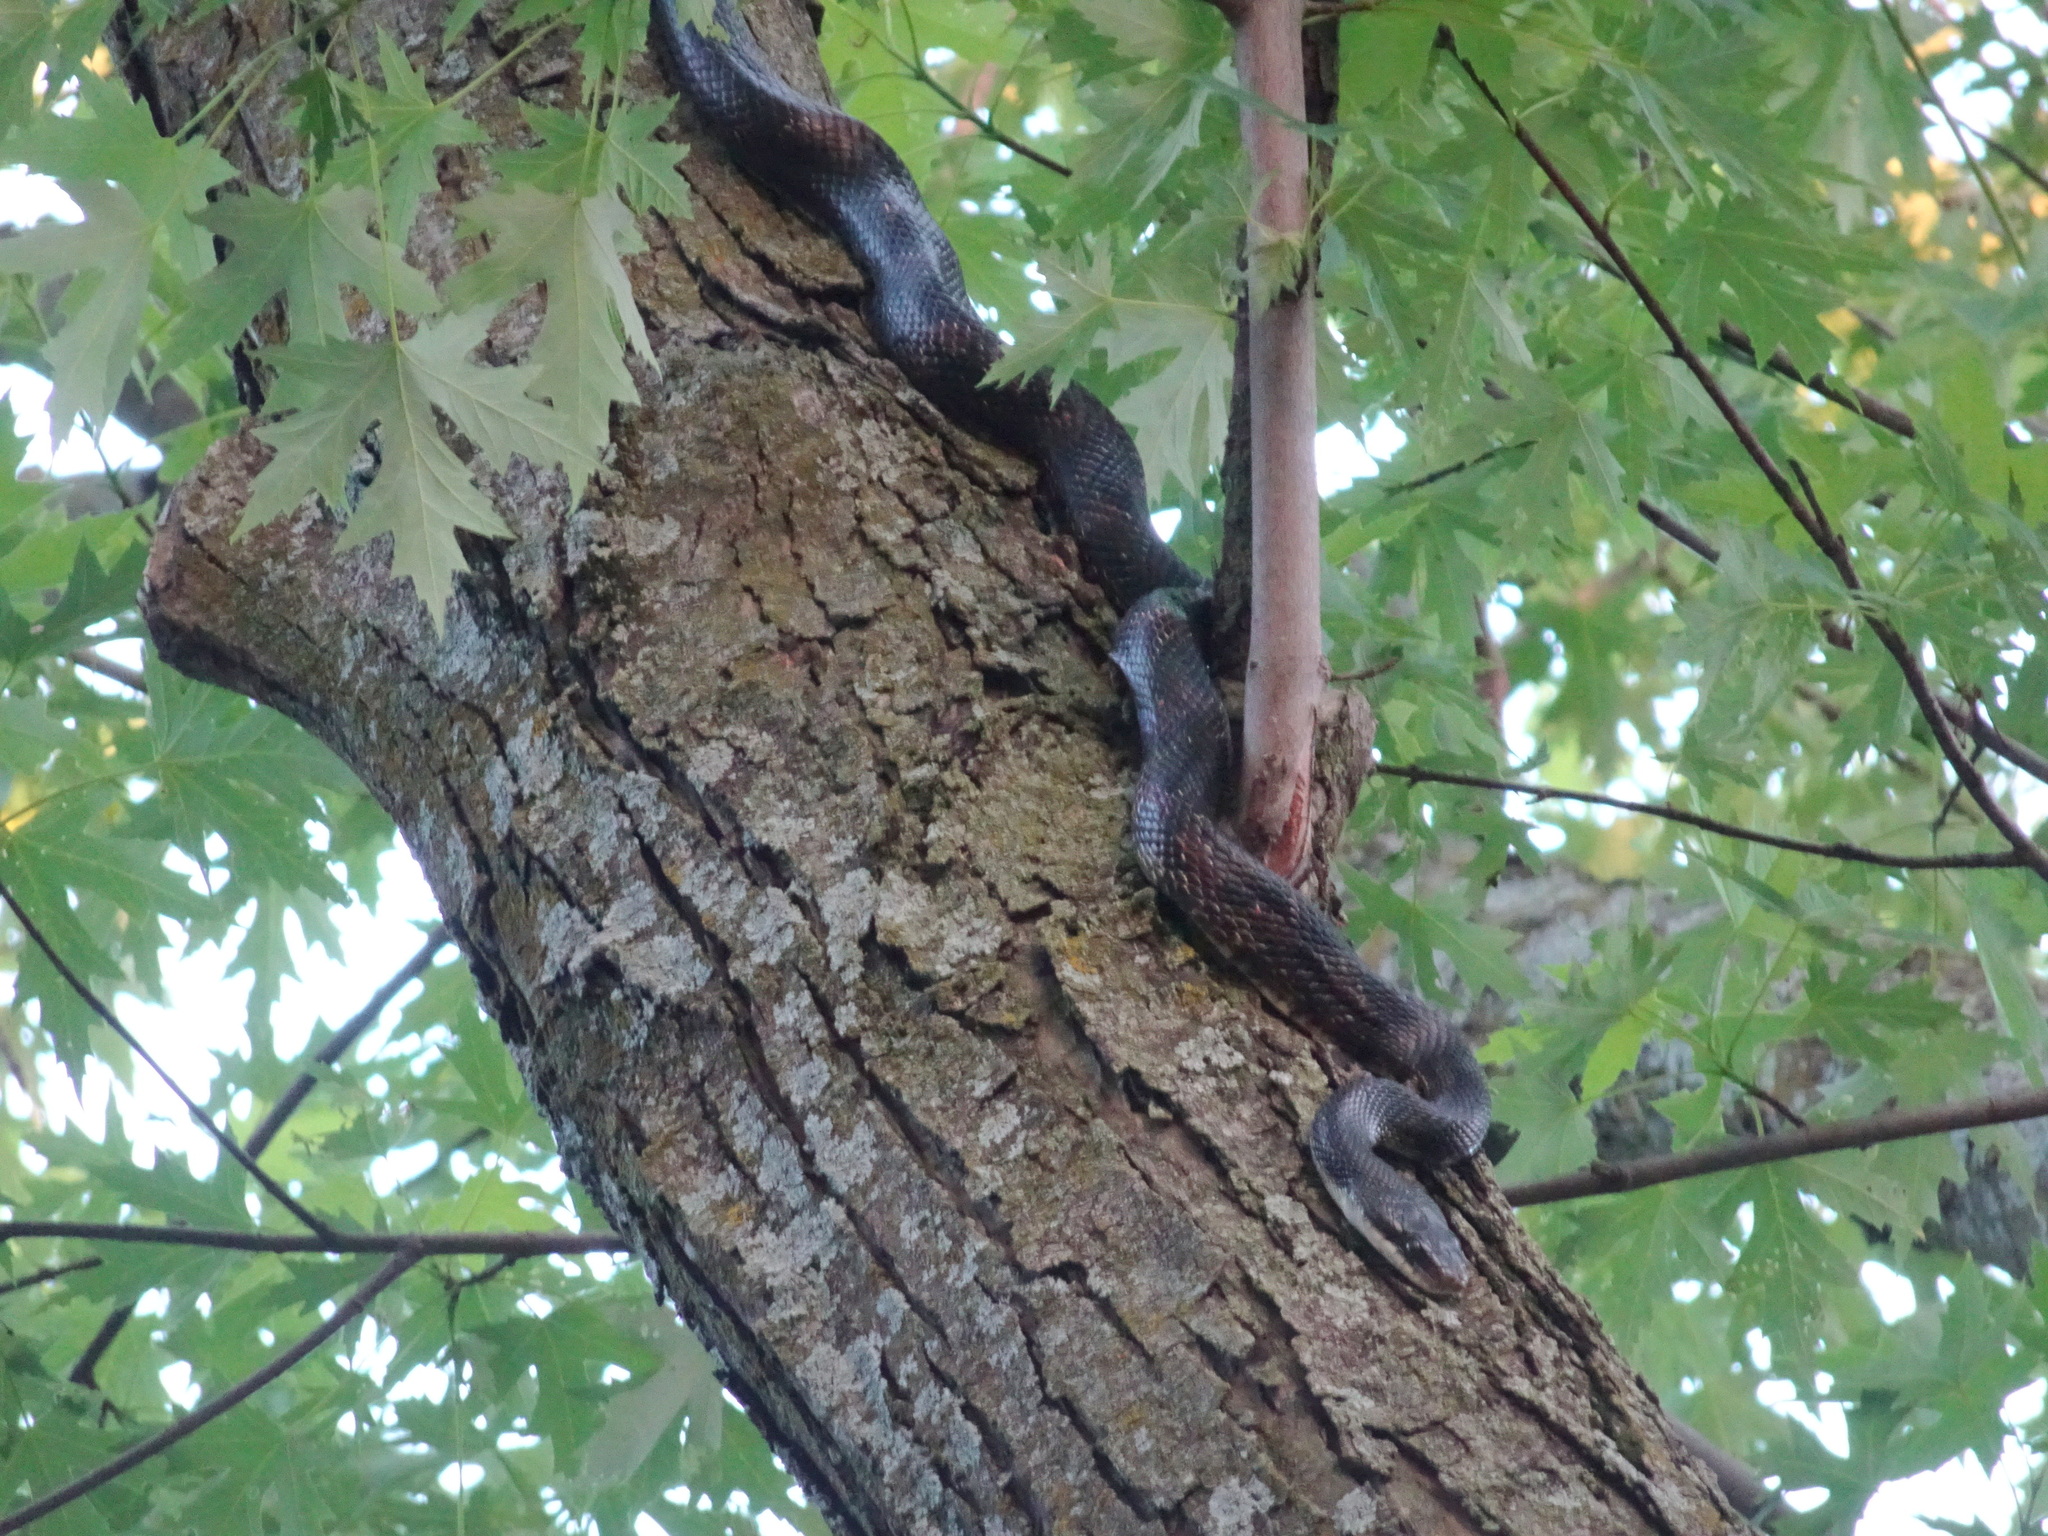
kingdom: Animalia
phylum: Chordata
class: Squamata
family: Colubridae
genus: Pantherophis
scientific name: Pantherophis obsoletus
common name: Black rat snake
